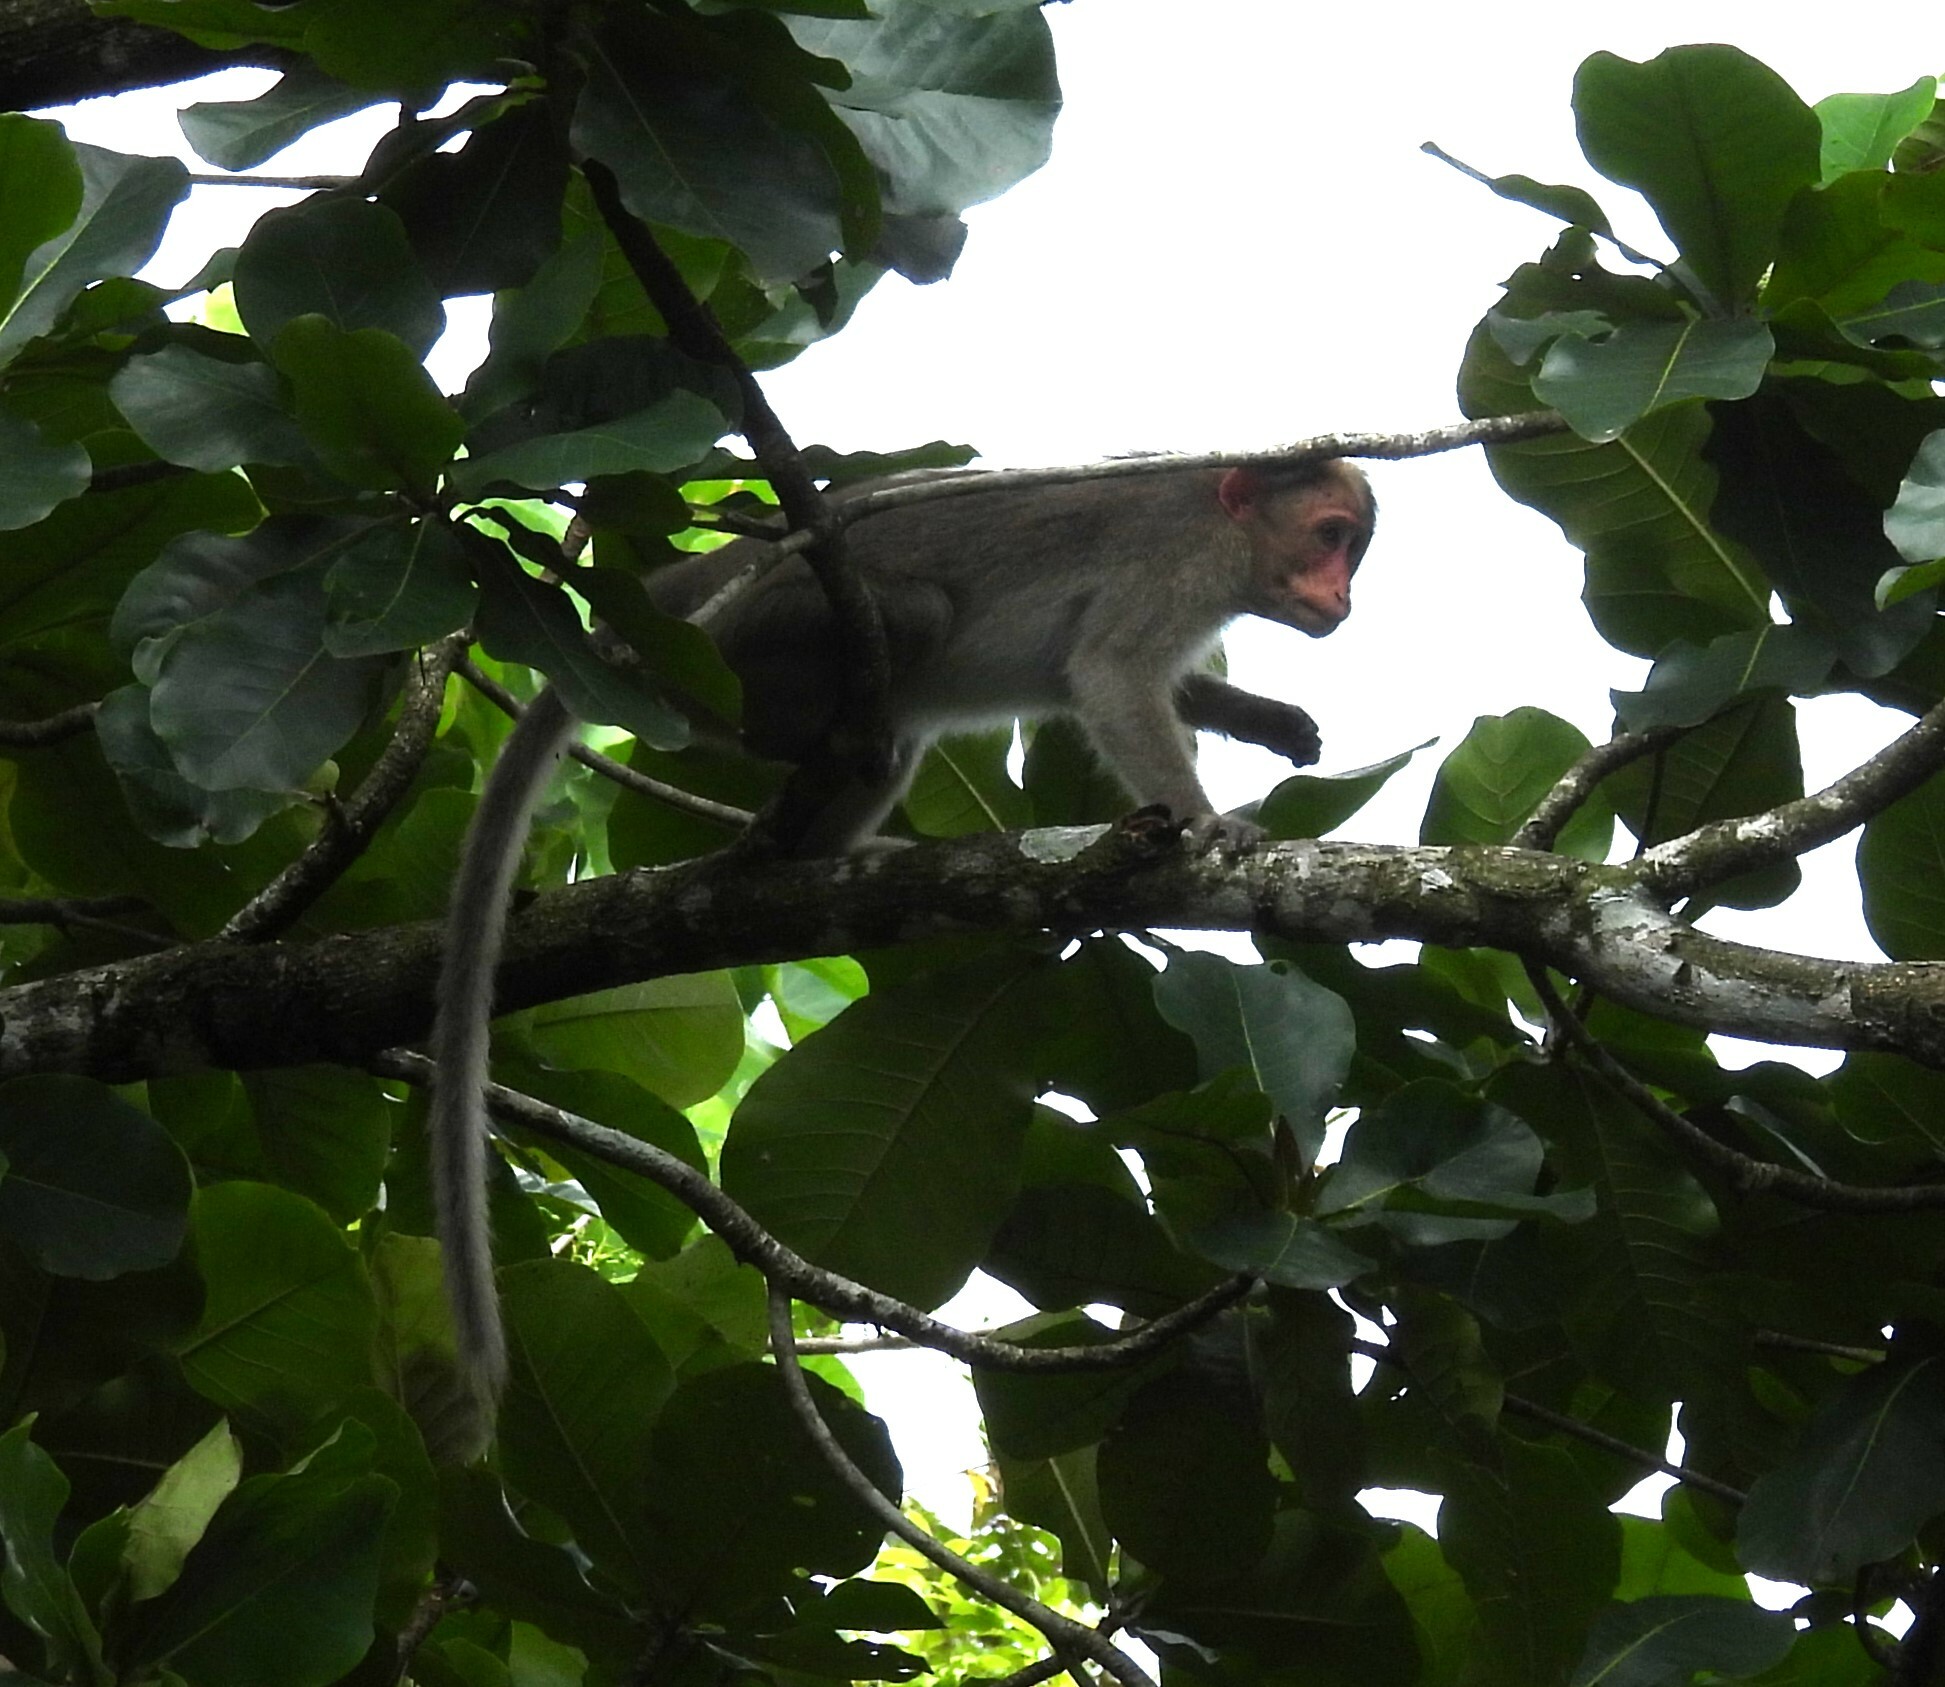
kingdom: Animalia
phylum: Chordata
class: Mammalia
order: Primates
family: Cercopithecidae
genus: Macaca
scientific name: Macaca radiata
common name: Bonnet macaque
